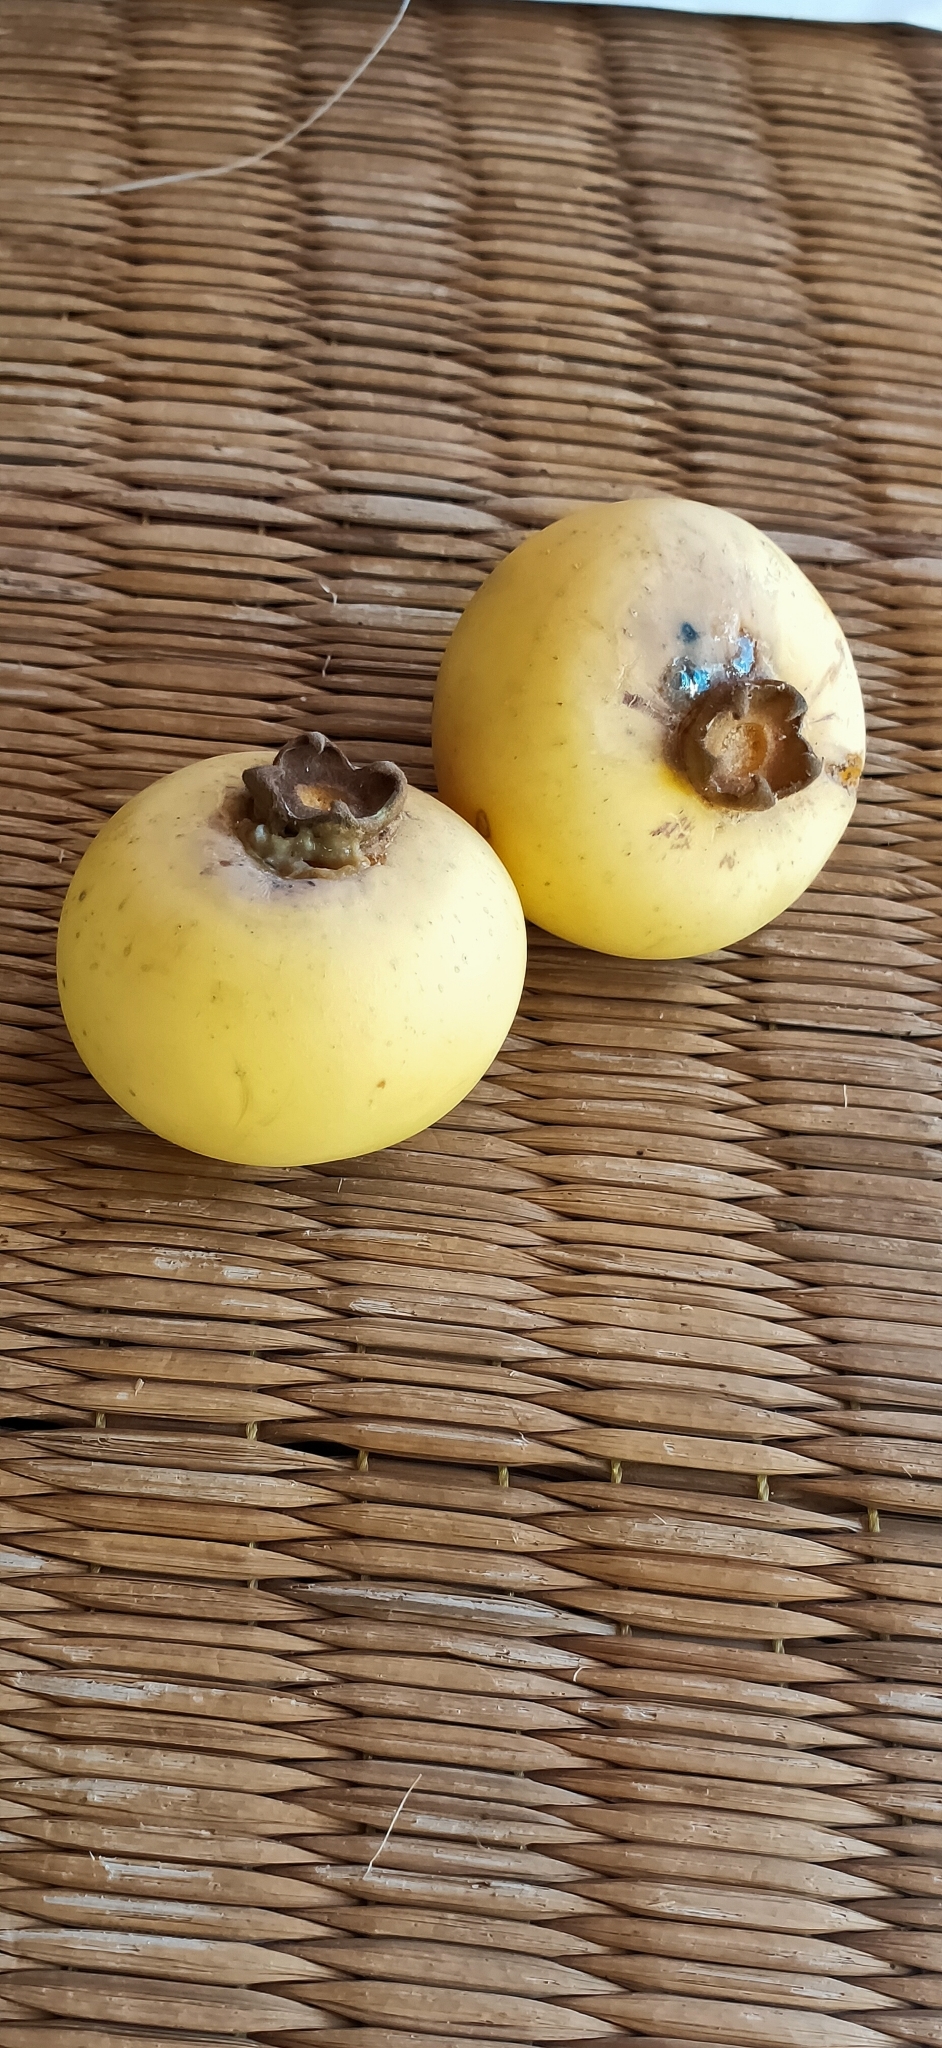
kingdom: Plantae
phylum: Tracheophyta
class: Magnoliopsida
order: Ericales
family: Ebenaceae
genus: Diospyros
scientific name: Diospyros decandra
